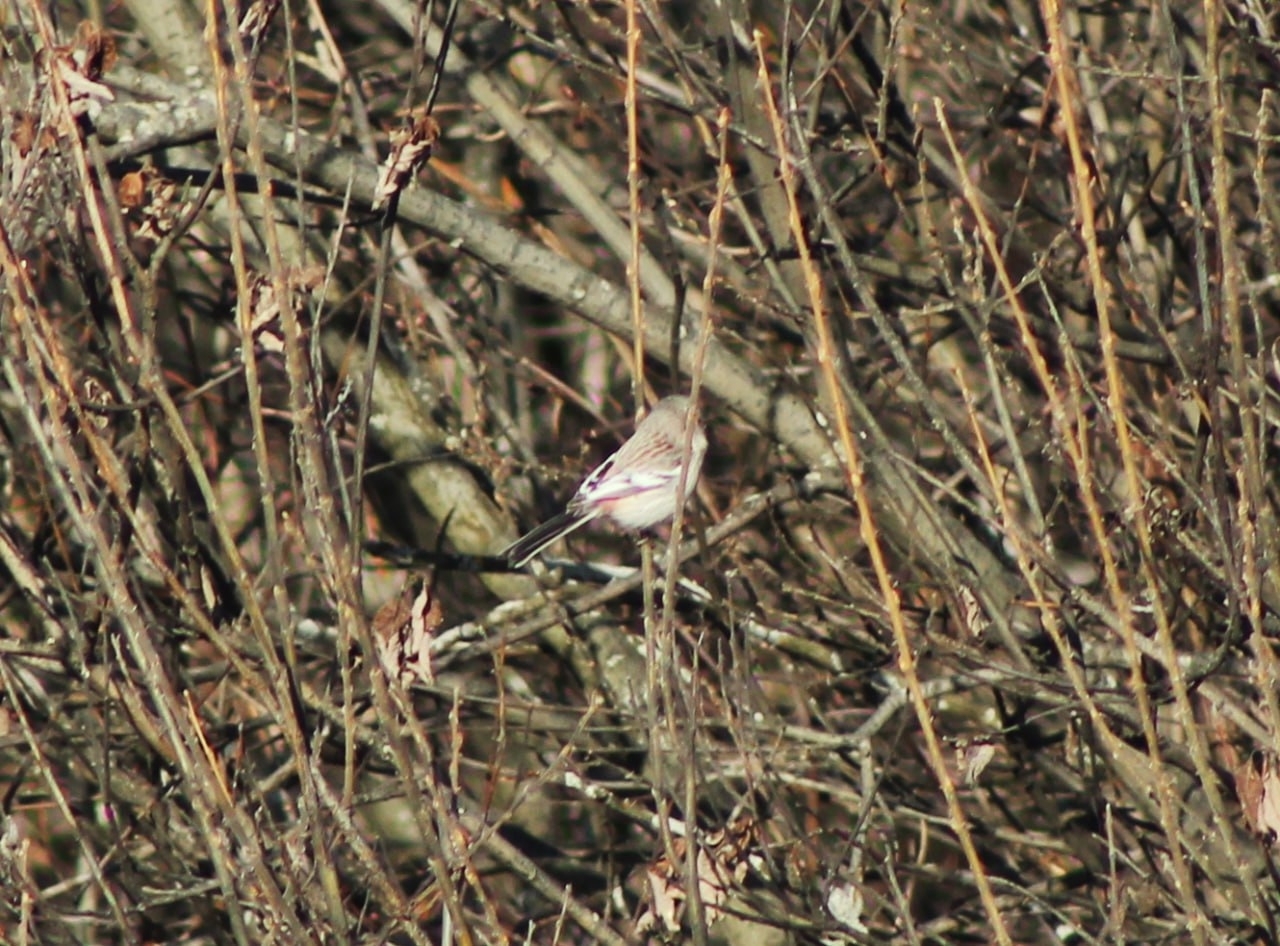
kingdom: Animalia
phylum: Chordata
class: Aves
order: Passeriformes
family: Fringillidae
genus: Carpodacus
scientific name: Carpodacus sibiricus
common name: Long-tailed rosefinch
